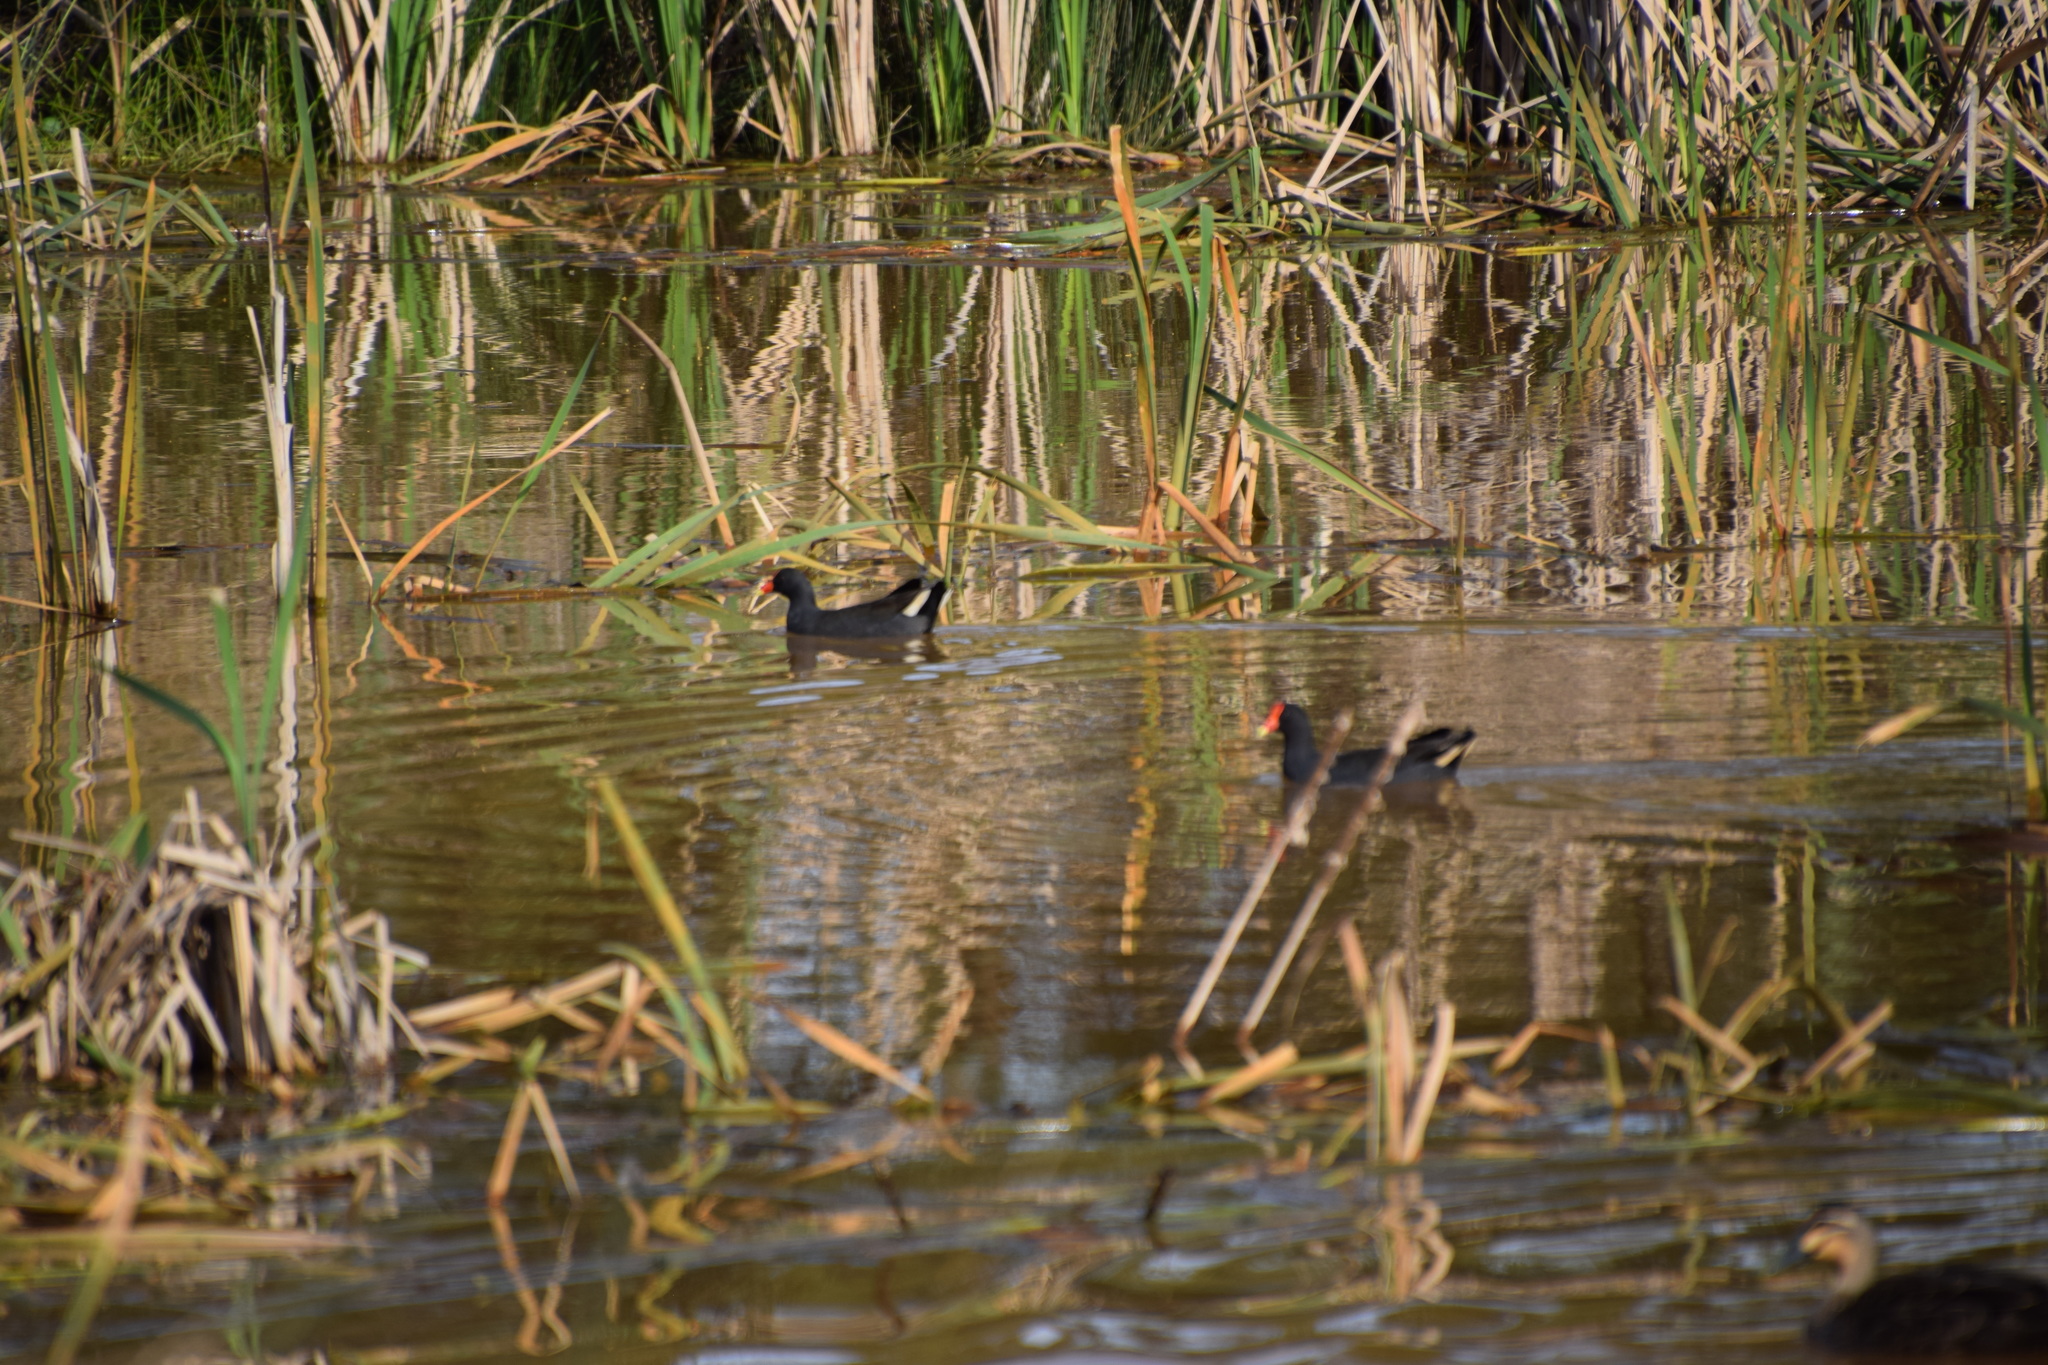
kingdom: Animalia
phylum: Chordata
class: Aves
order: Gruiformes
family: Rallidae
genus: Gallinula
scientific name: Gallinula tenebrosa
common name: Dusky moorhen
